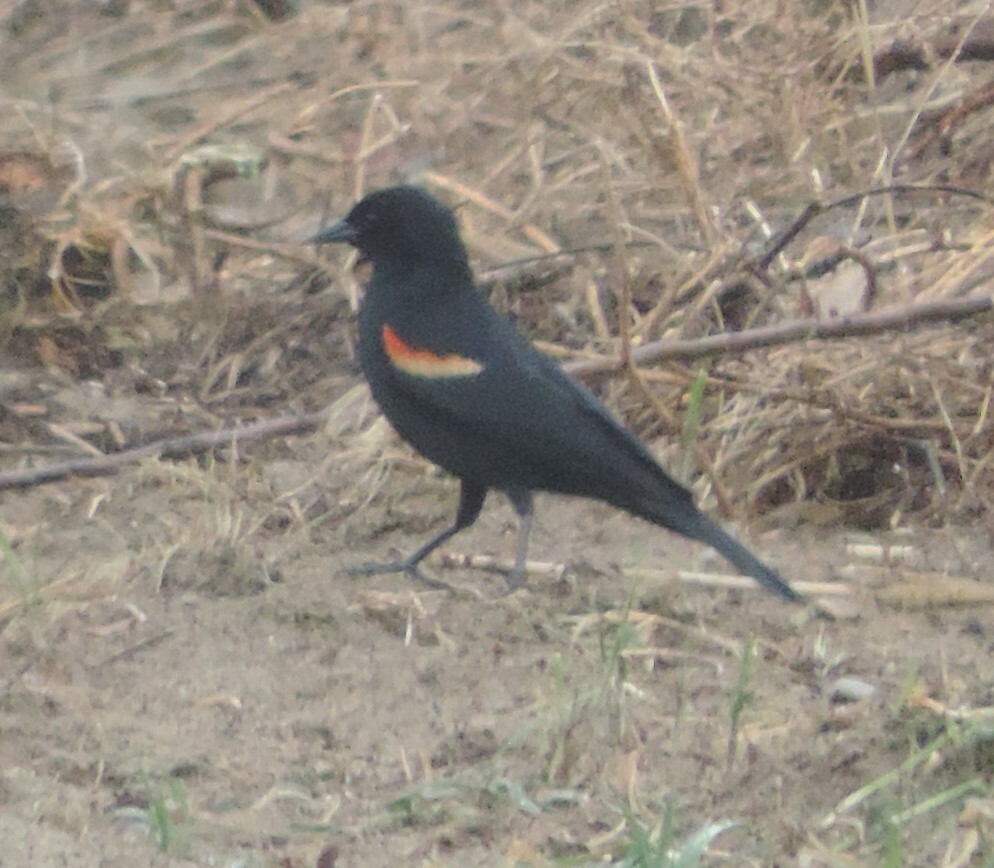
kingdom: Animalia
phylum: Chordata
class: Aves
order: Passeriformes
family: Icteridae
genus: Agelaius
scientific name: Agelaius phoeniceus
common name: Red-winged blackbird
